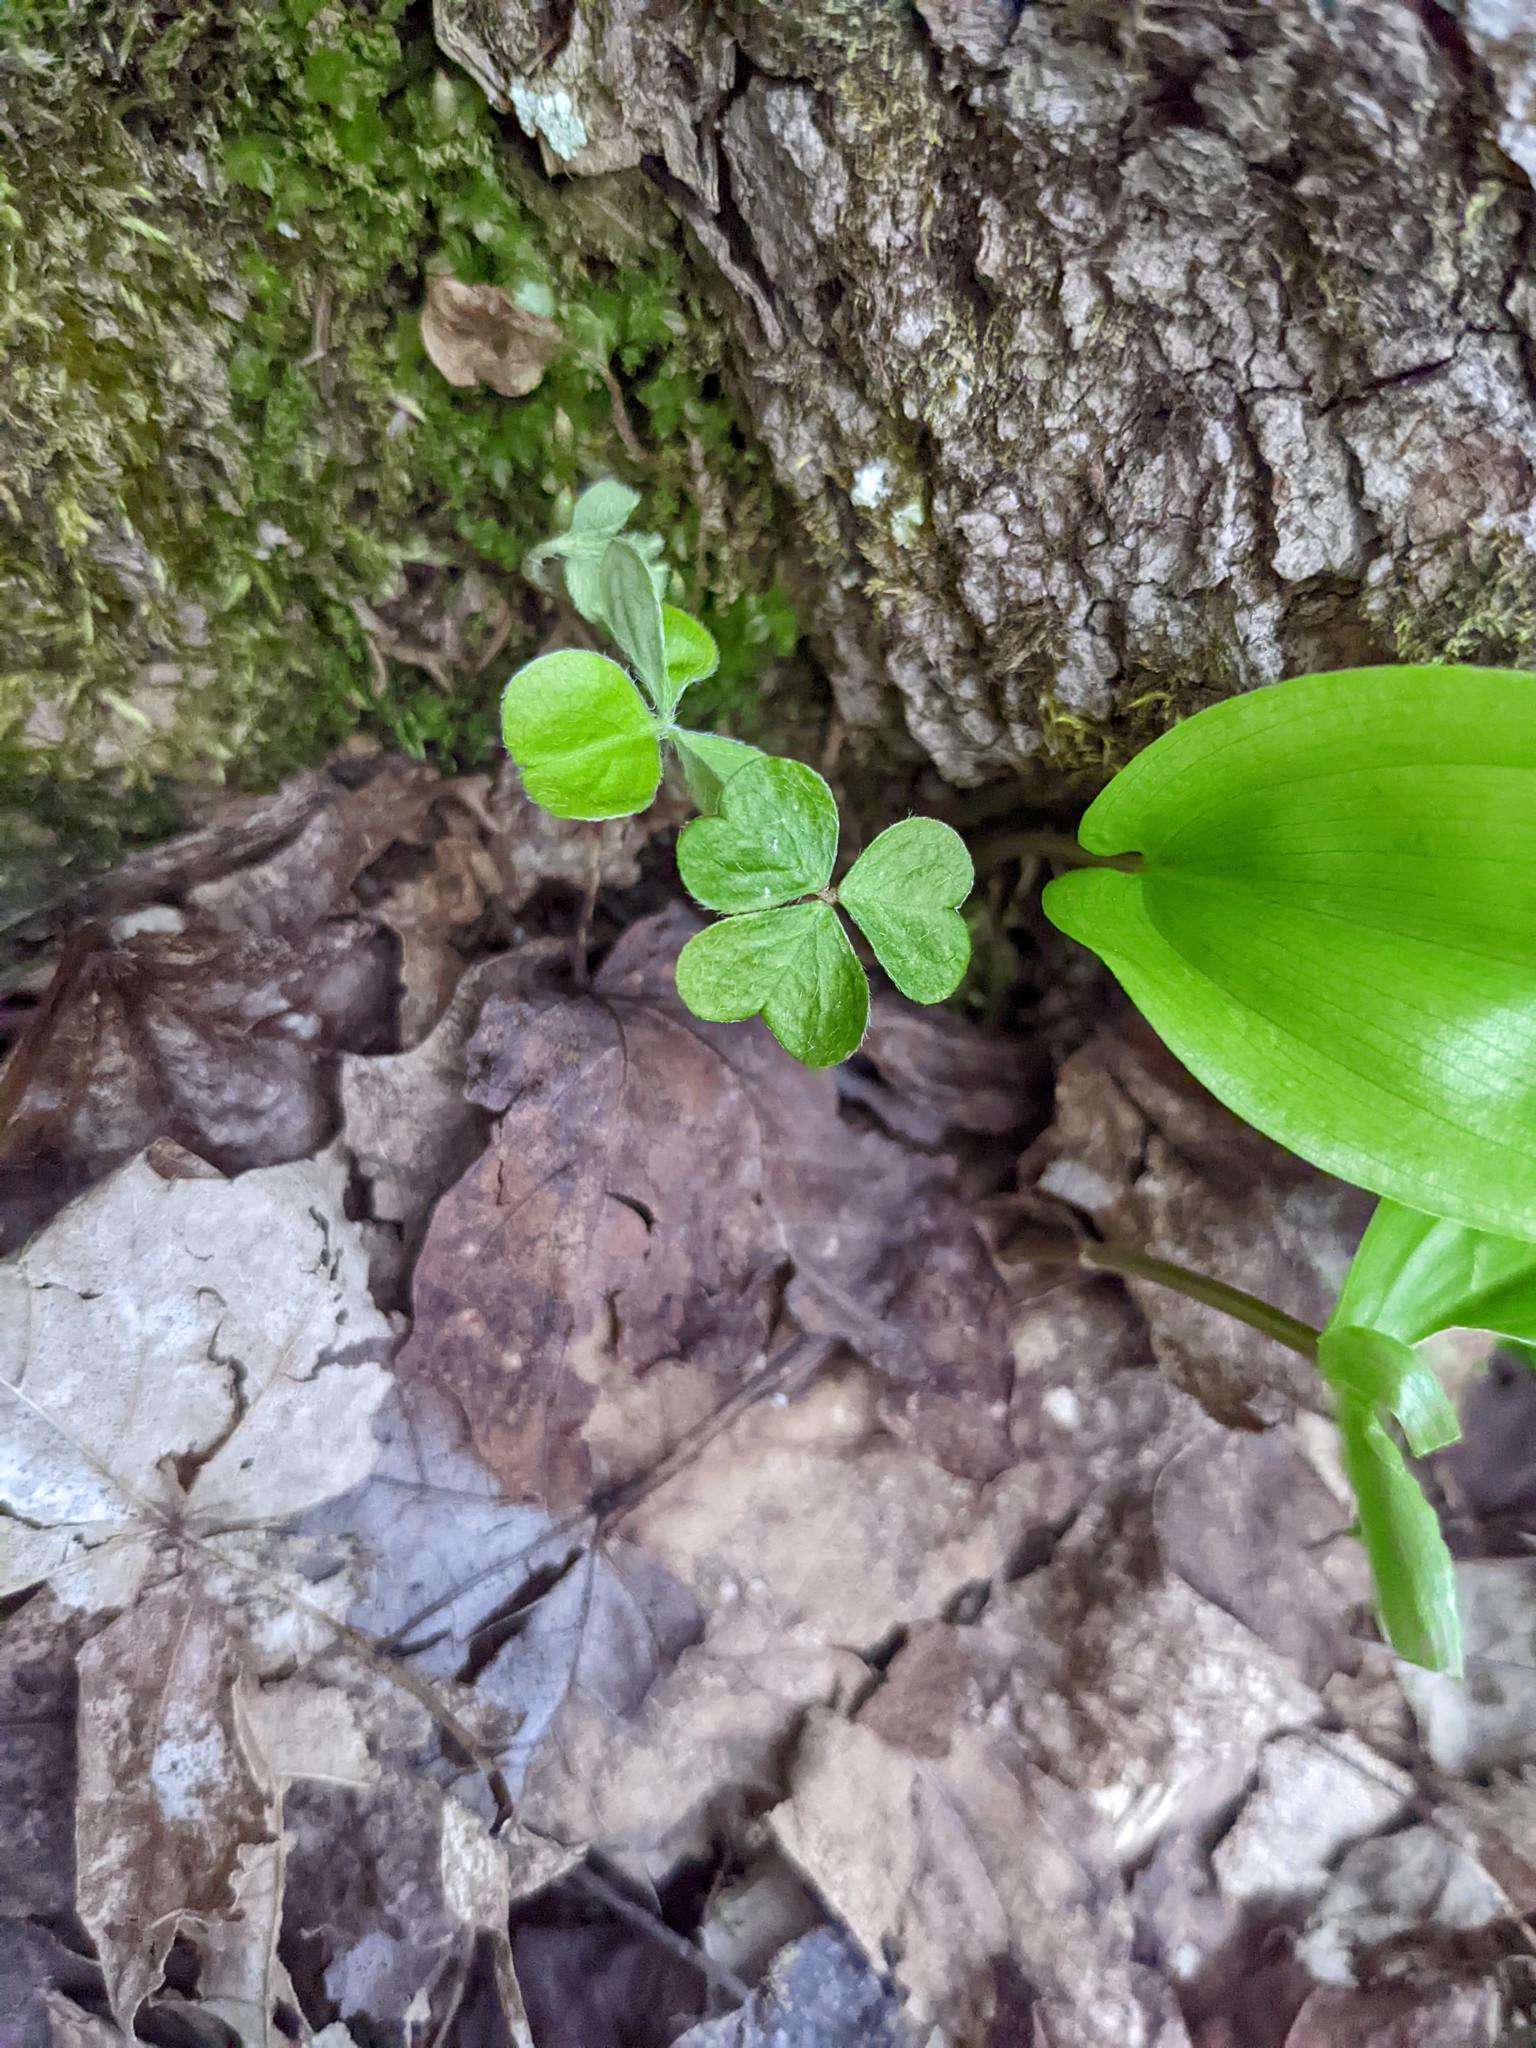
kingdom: Plantae
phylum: Tracheophyta
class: Magnoliopsida
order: Oxalidales
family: Oxalidaceae
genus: Oxalis
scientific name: Oxalis montana
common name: American wood-sorrel
